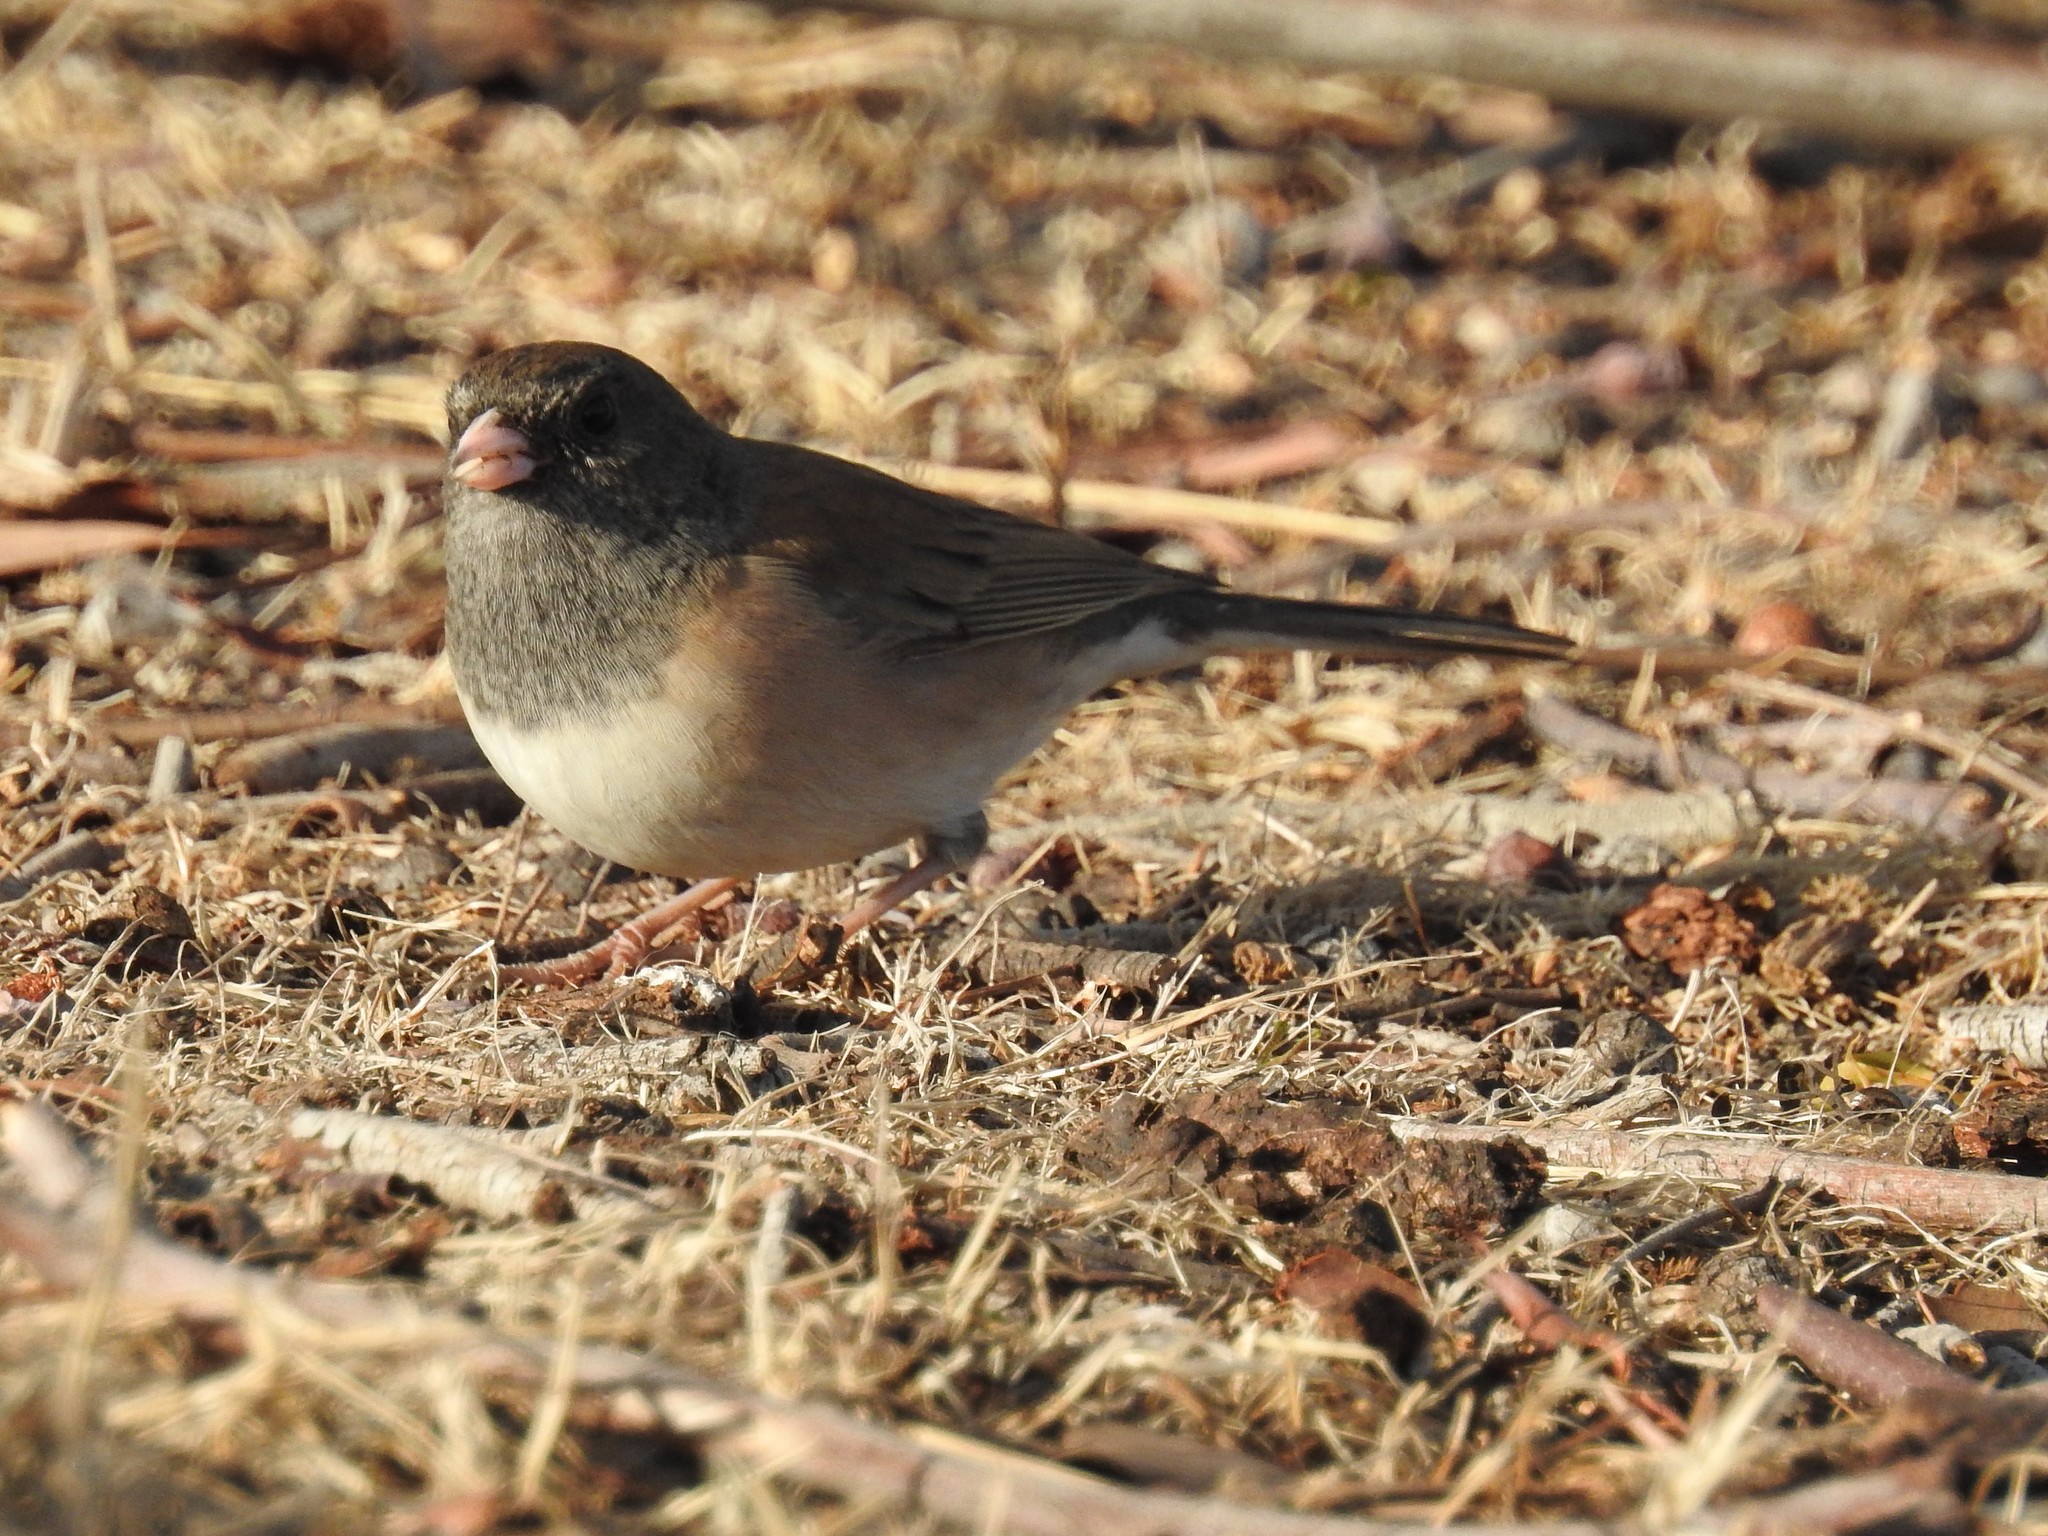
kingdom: Animalia
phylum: Chordata
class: Aves
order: Passeriformes
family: Passerellidae
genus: Junco
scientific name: Junco hyemalis
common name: Dark-eyed junco
